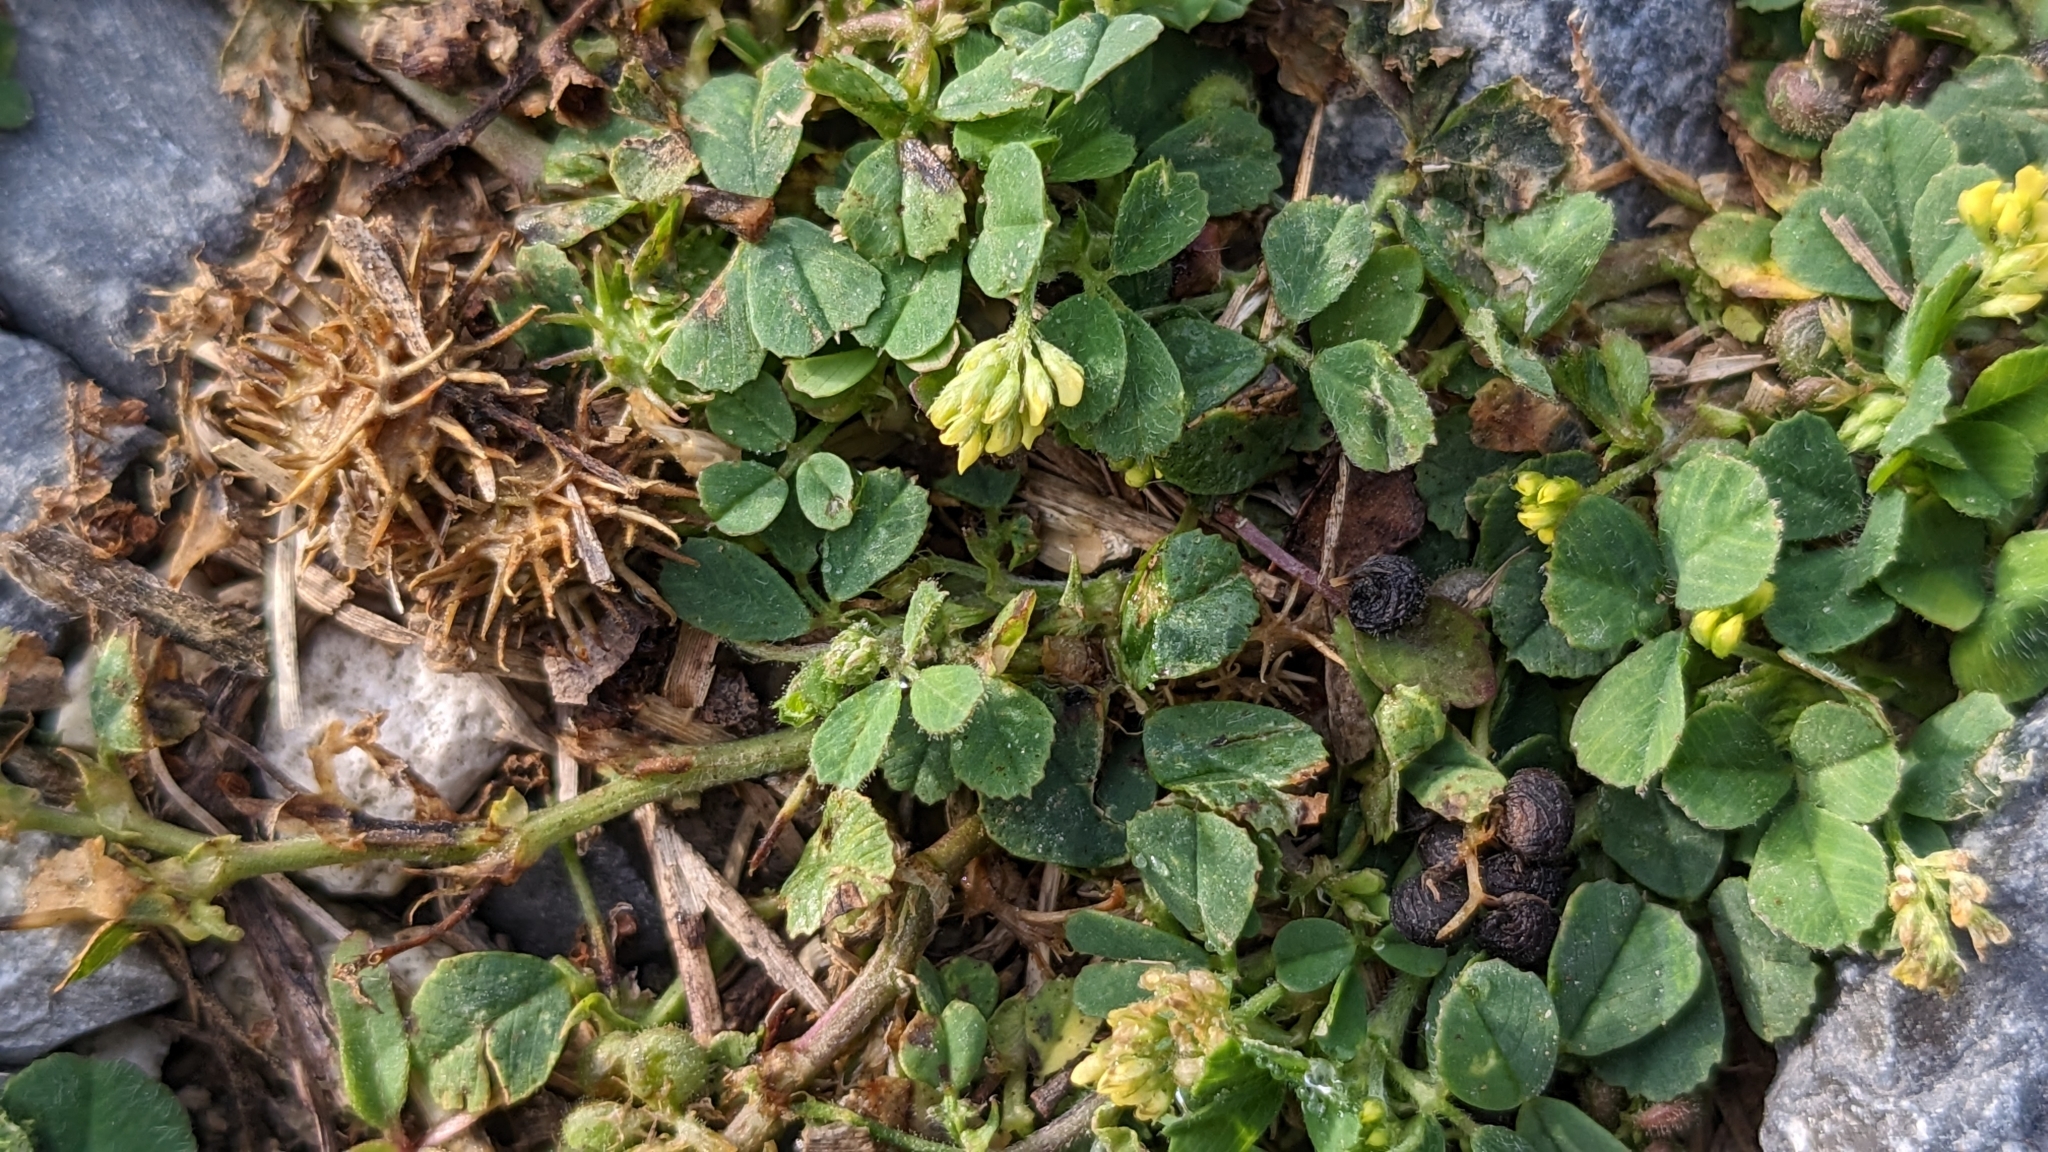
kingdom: Plantae
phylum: Tracheophyta
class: Magnoliopsida
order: Fabales
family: Fabaceae
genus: Medicago
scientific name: Medicago lupulina
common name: Black medick
